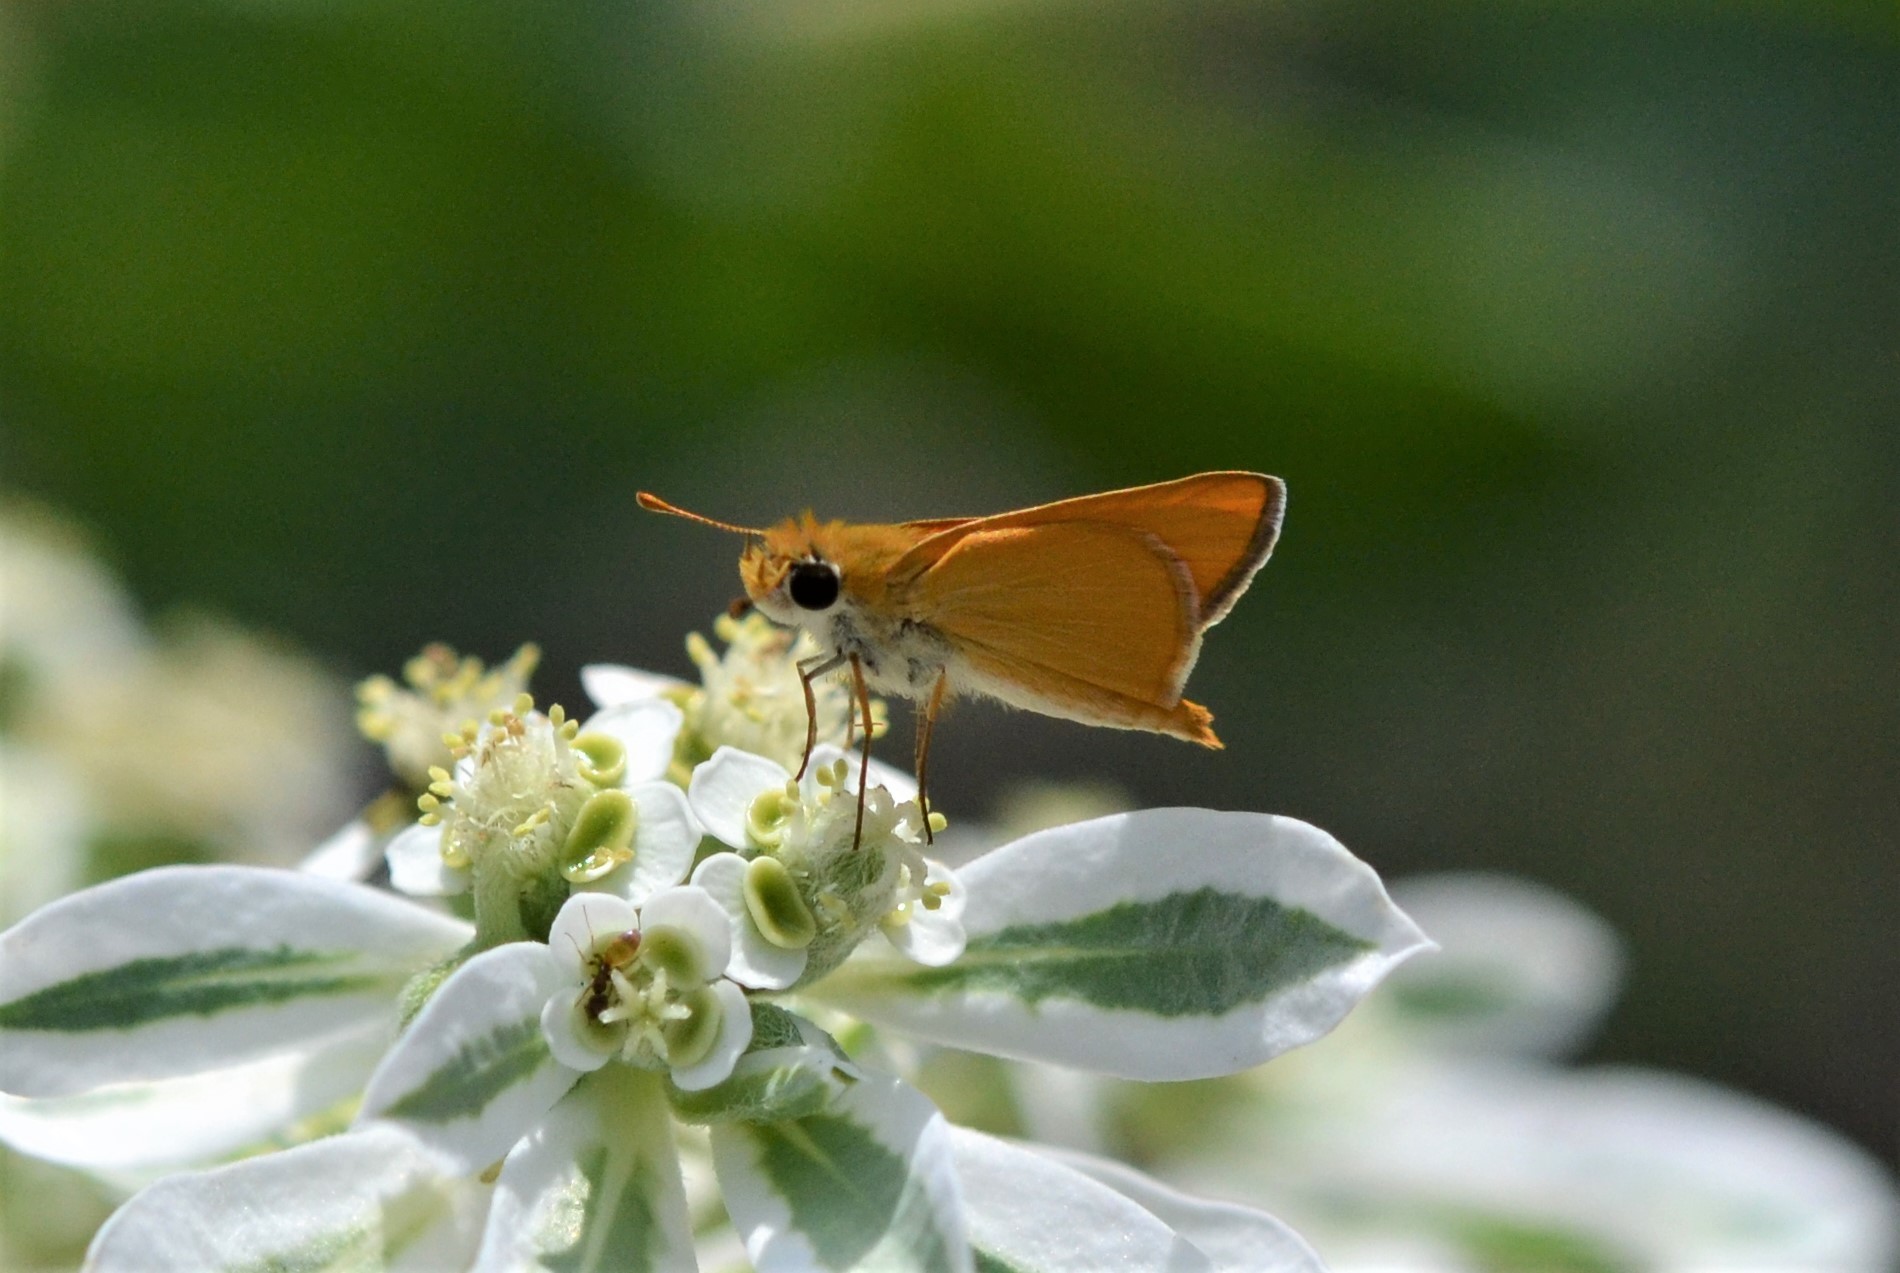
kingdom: Animalia
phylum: Arthropoda
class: Insecta
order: Lepidoptera
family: Hesperiidae
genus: Copaeodes
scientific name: Copaeodes aurantiaca
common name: Orange skipperling
